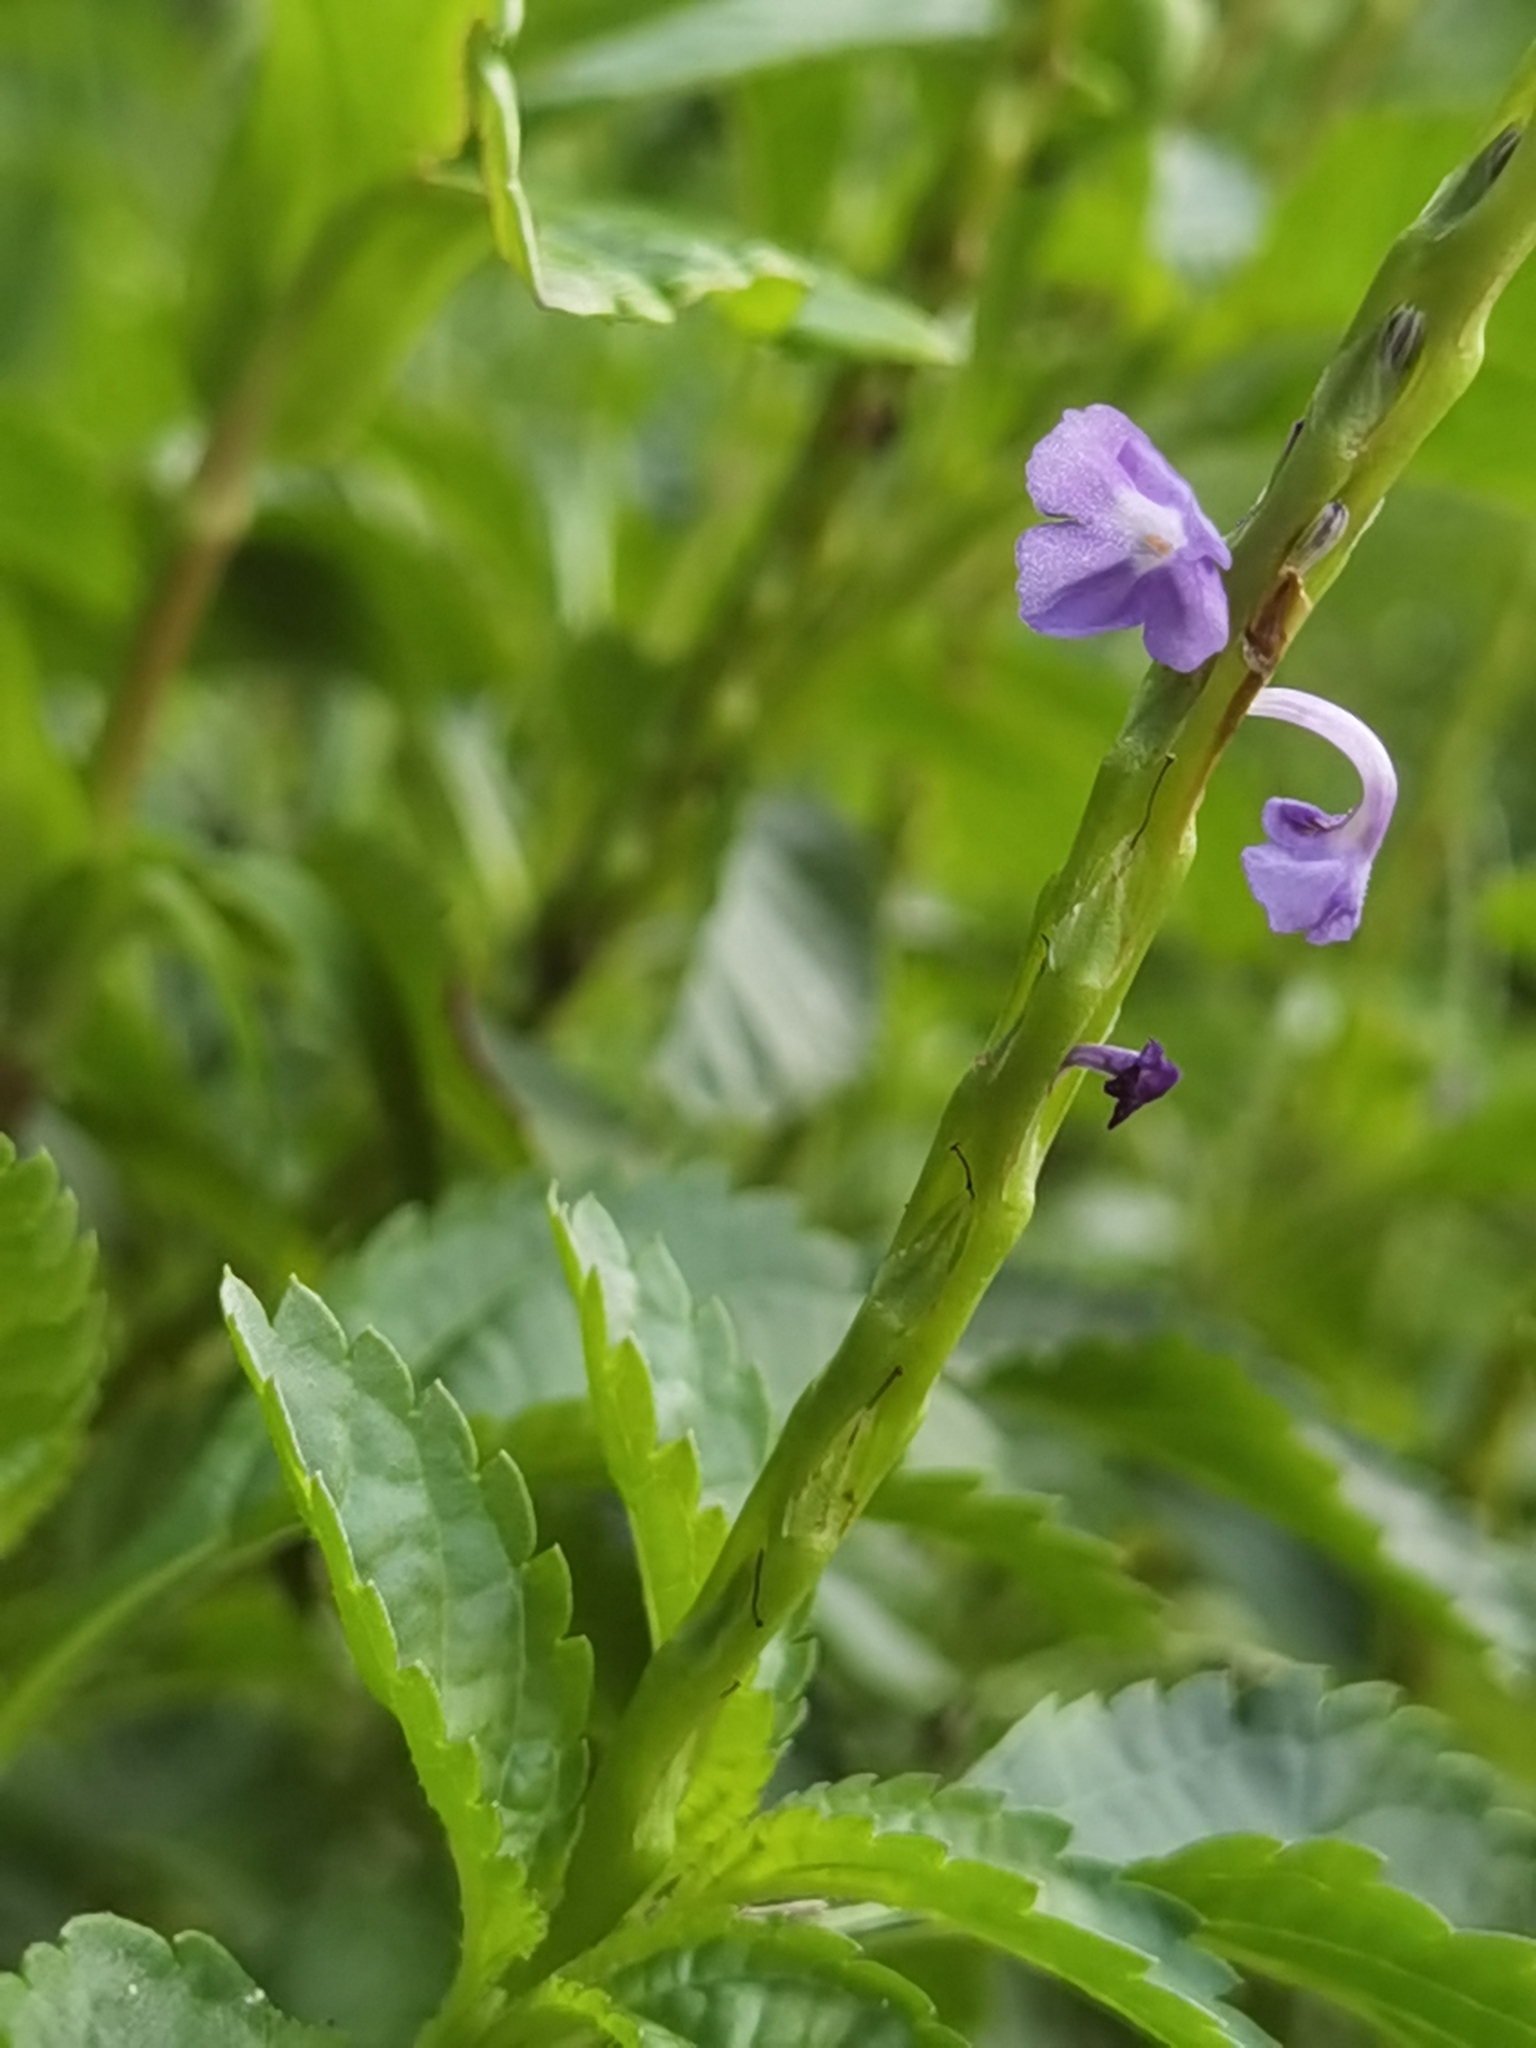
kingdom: Plantae
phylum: Tracheophyta
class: Magnoliopsida
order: Lamiales
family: Verbenaceae
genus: Stachytarpheta
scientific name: Stachytarpheta jamaicensis
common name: Light-blue snakeweed
